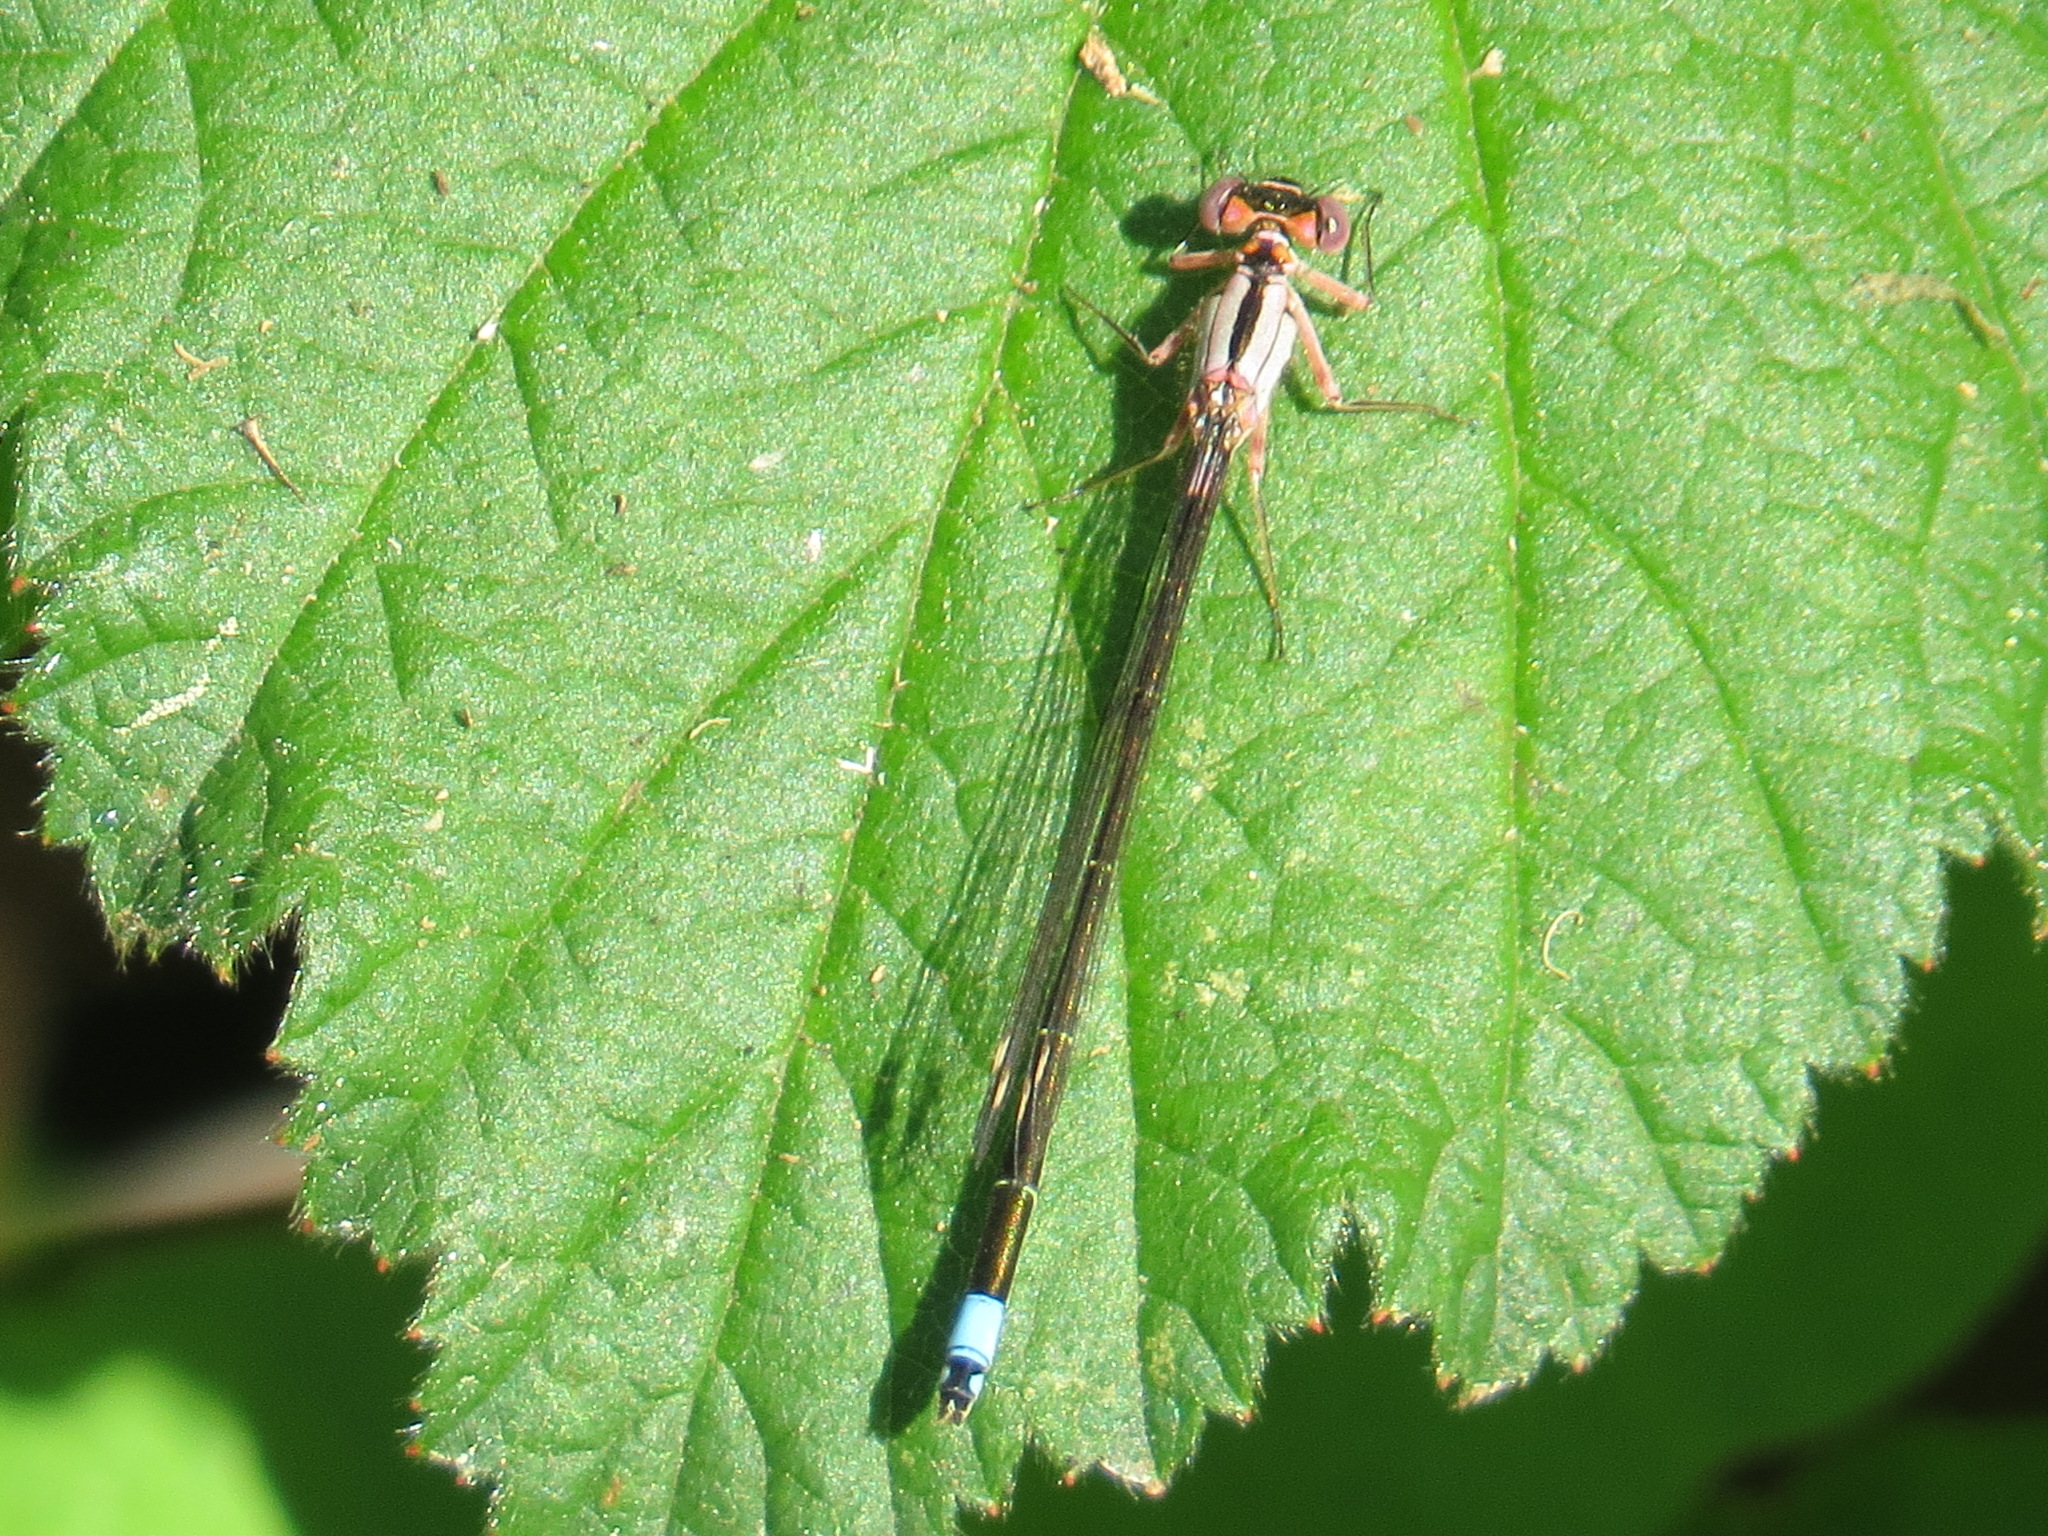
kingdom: Animalia
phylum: Arthropoda
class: Insecta
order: Odonata
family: Coenagrionidae
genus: Ischnura
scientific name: Ischnura cervula
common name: Pacific forktail
